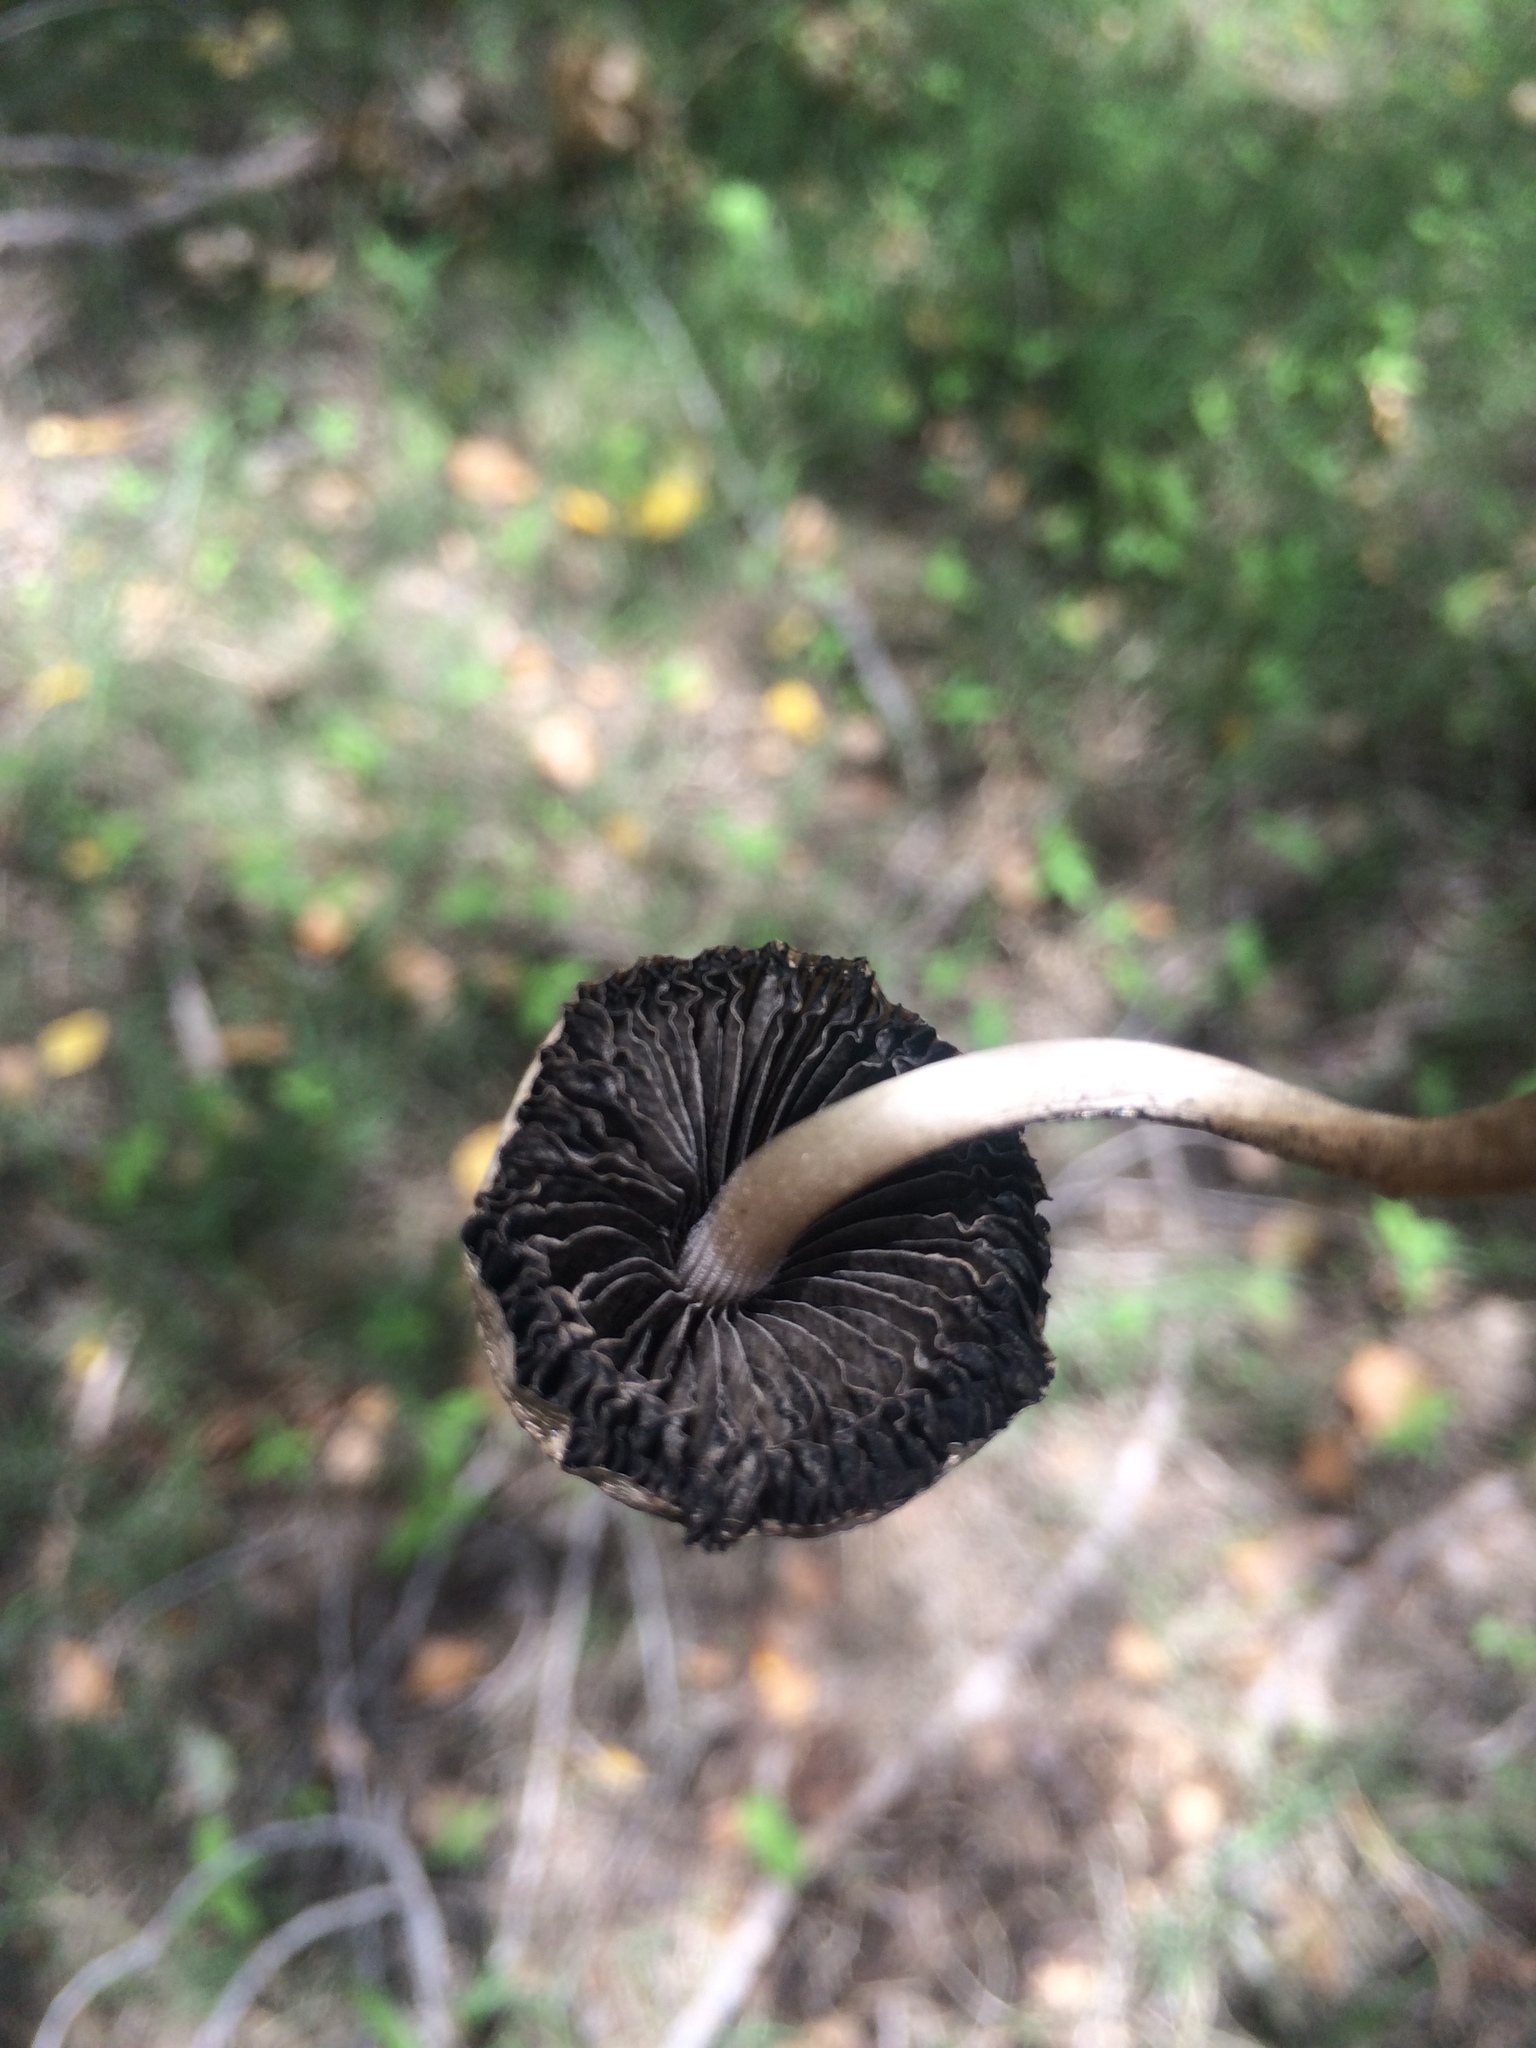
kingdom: Fungi
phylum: Basidiomycota
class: Agaricomycetes
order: Agaricales
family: Bolbitiaceae
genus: Panaeolus
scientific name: Panaeolus antillarum
